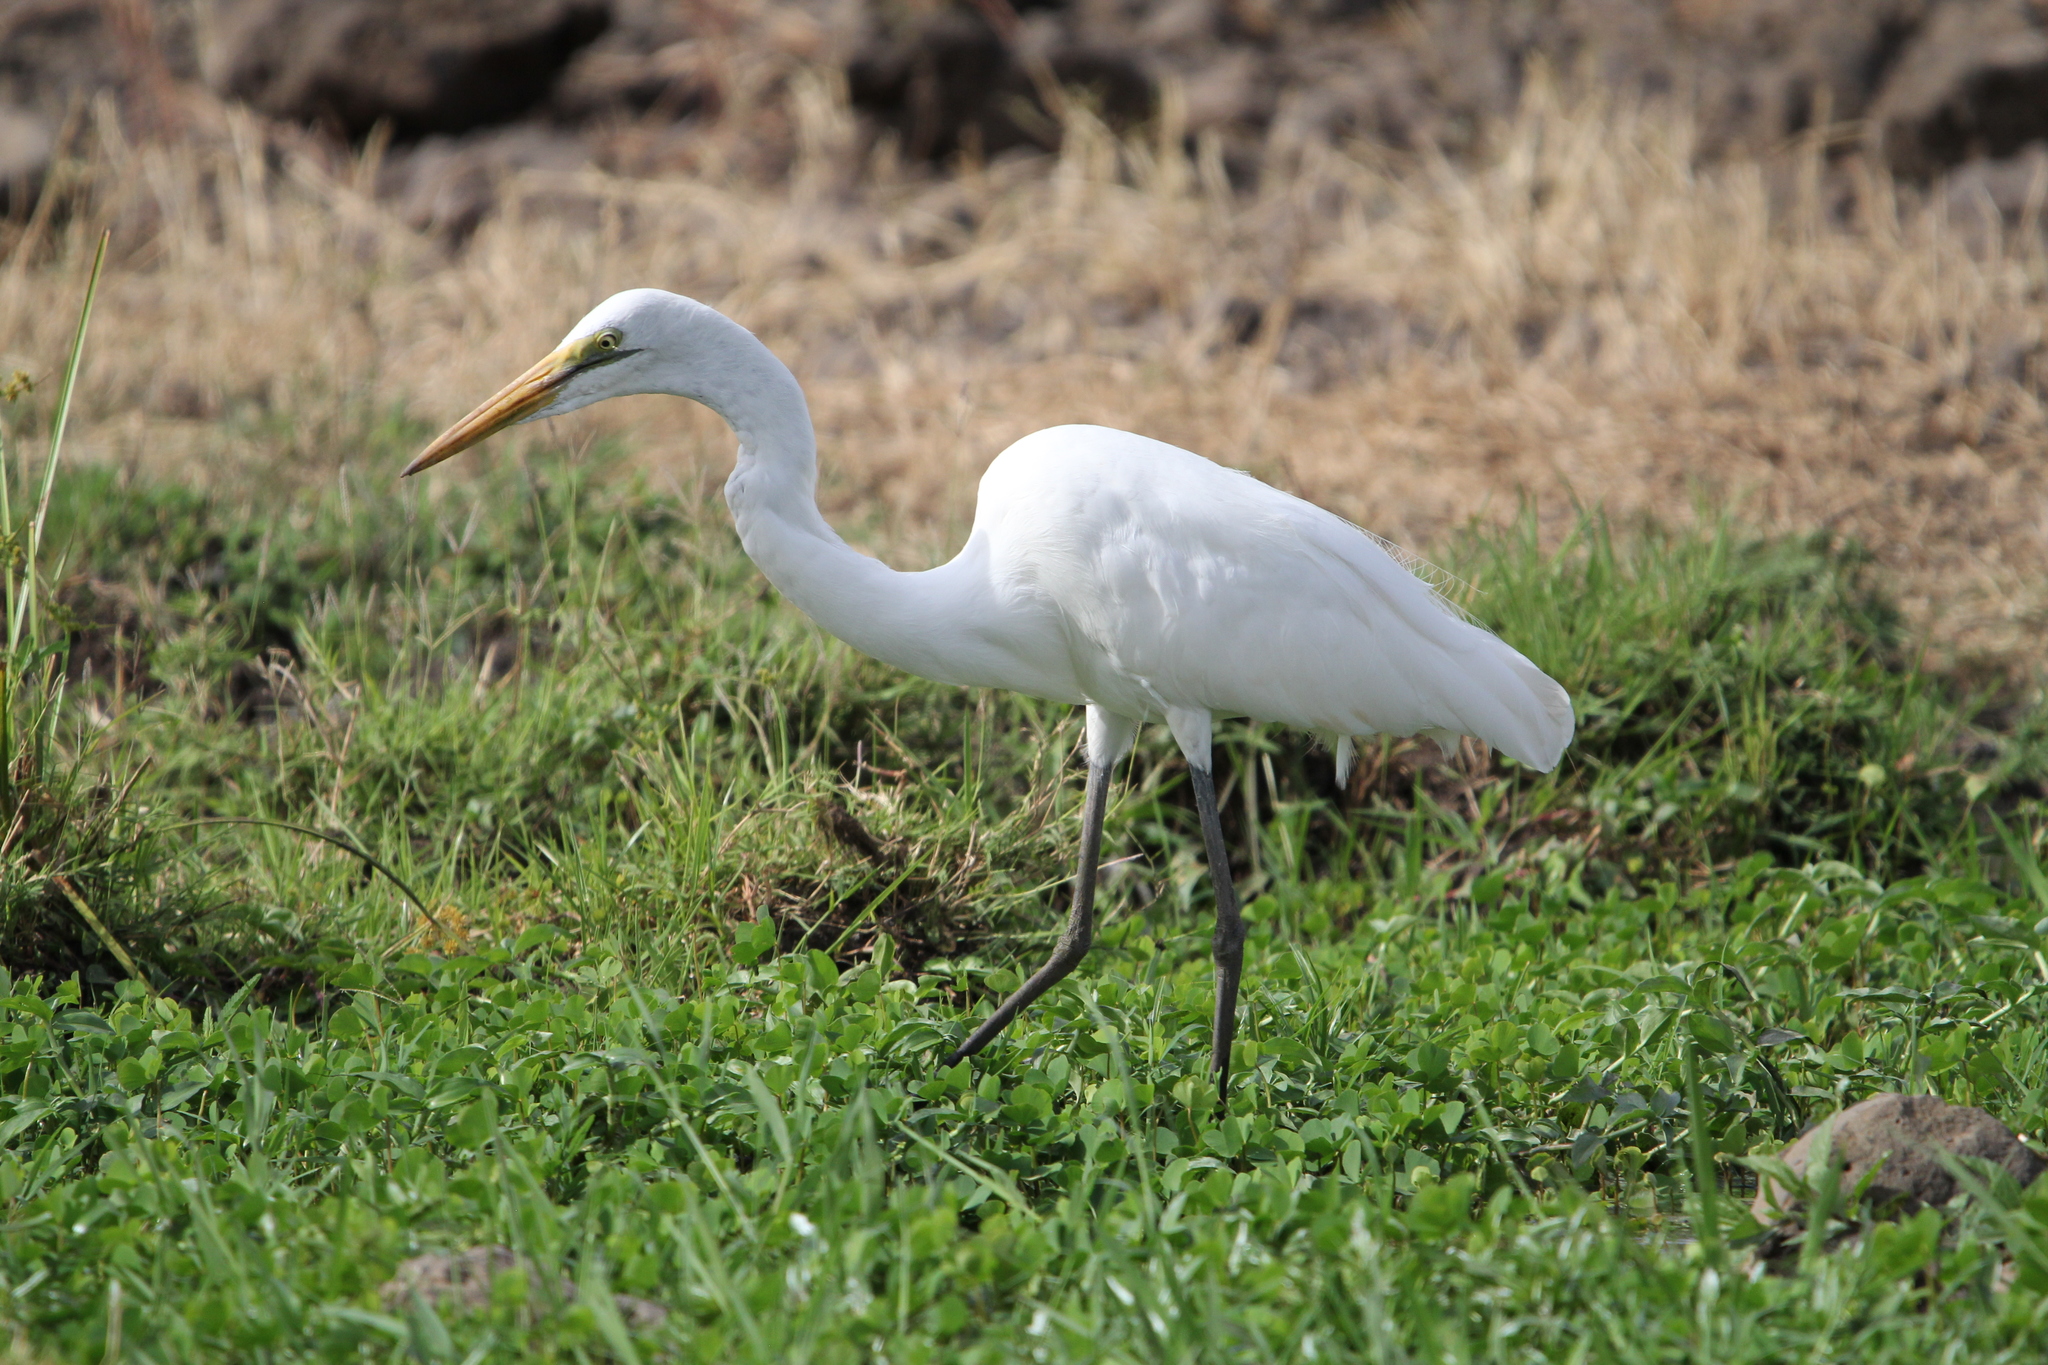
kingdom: Animalia
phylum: Chordata
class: Aves
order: Pelecaniformes
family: Ardeidae
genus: Ardea
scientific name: Ardea alba
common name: Great egret
